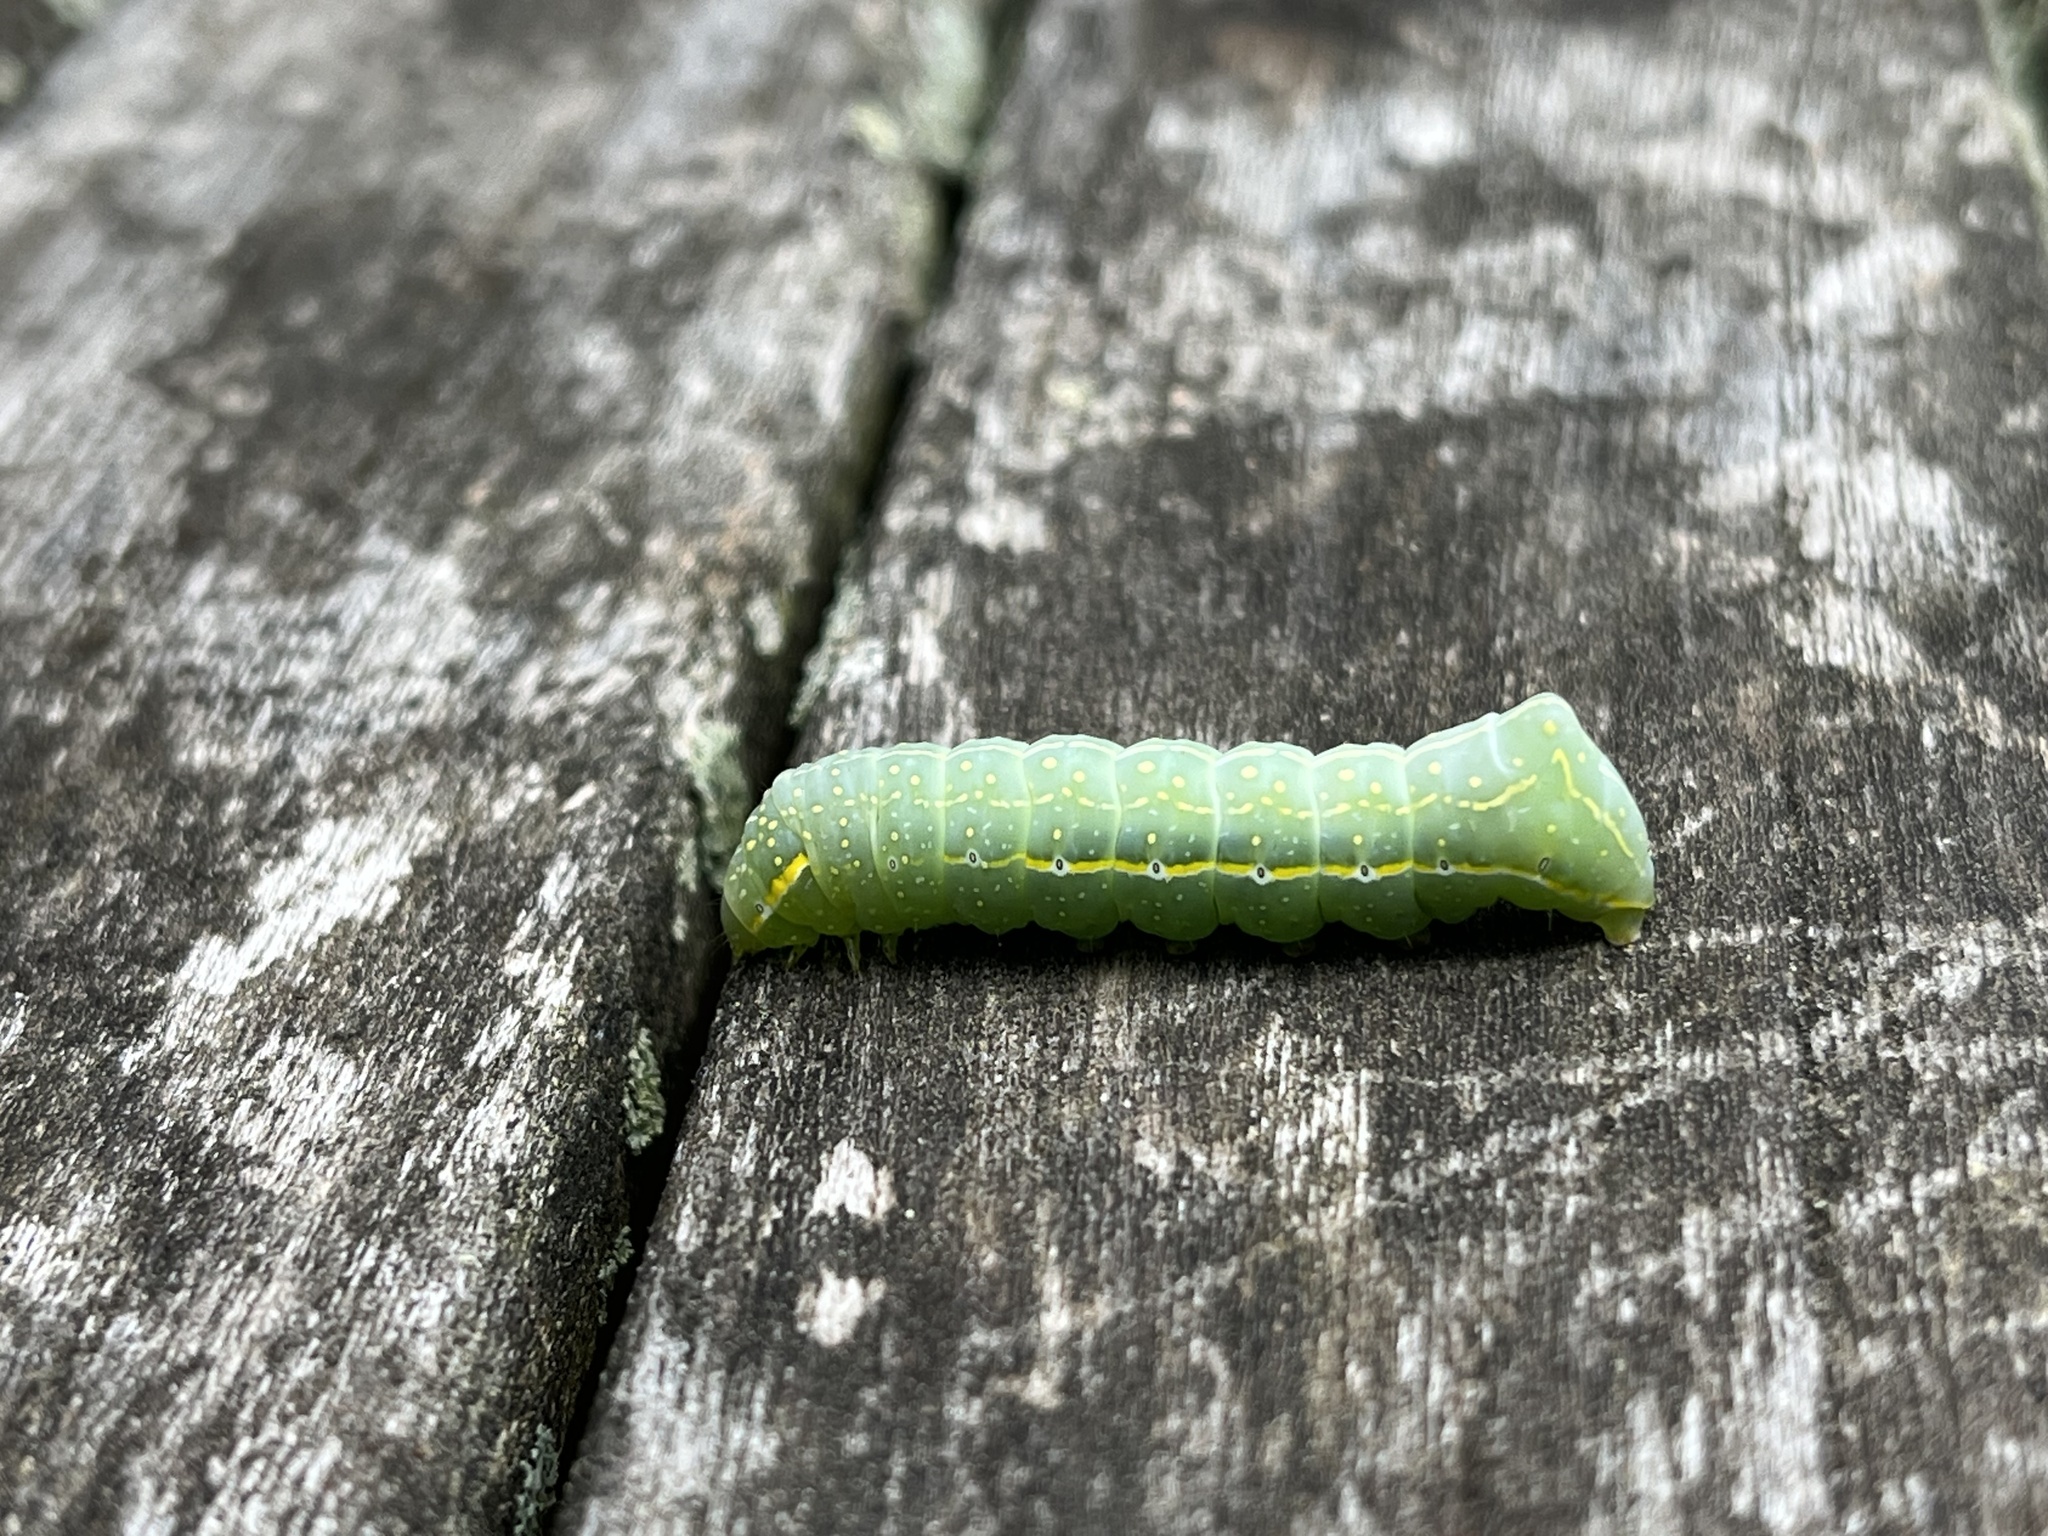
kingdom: Animalia
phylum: Arthropoda
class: Insecta
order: Lepidoptera
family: Noctuidae
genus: Amphipyra
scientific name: Amphipyra pyramidoides
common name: American copper underwing
